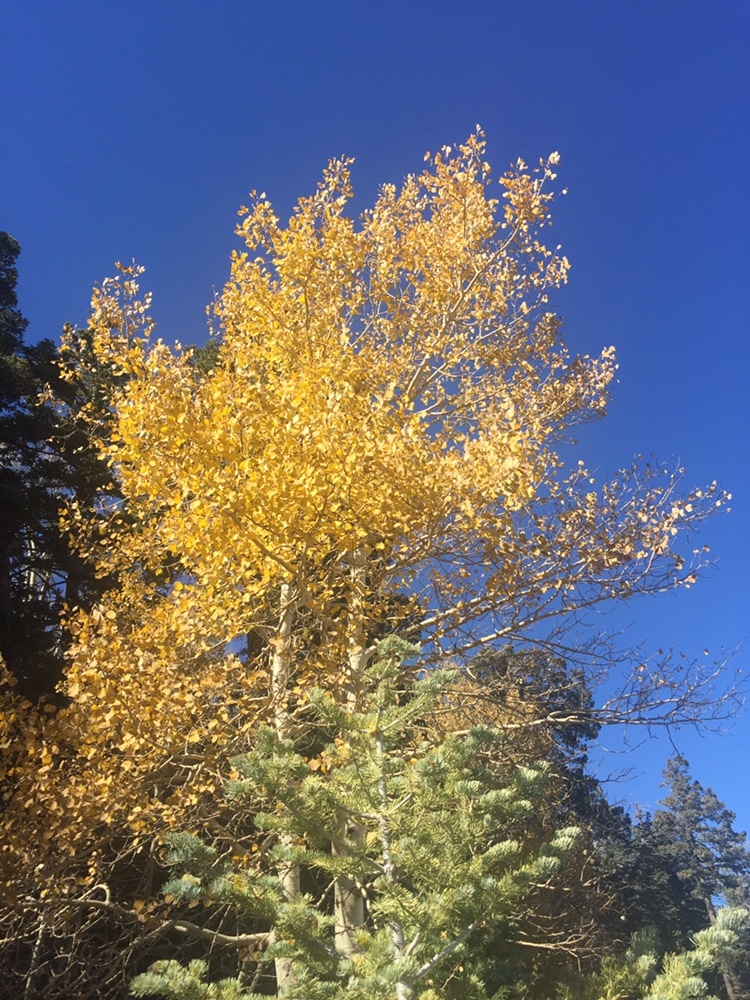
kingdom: Plantae
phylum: Tracheophyta
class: Magnoliopsida
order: Malpighiales
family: Salicaceae
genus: Populus
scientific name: Populus tremuloides
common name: Quaking aspen
